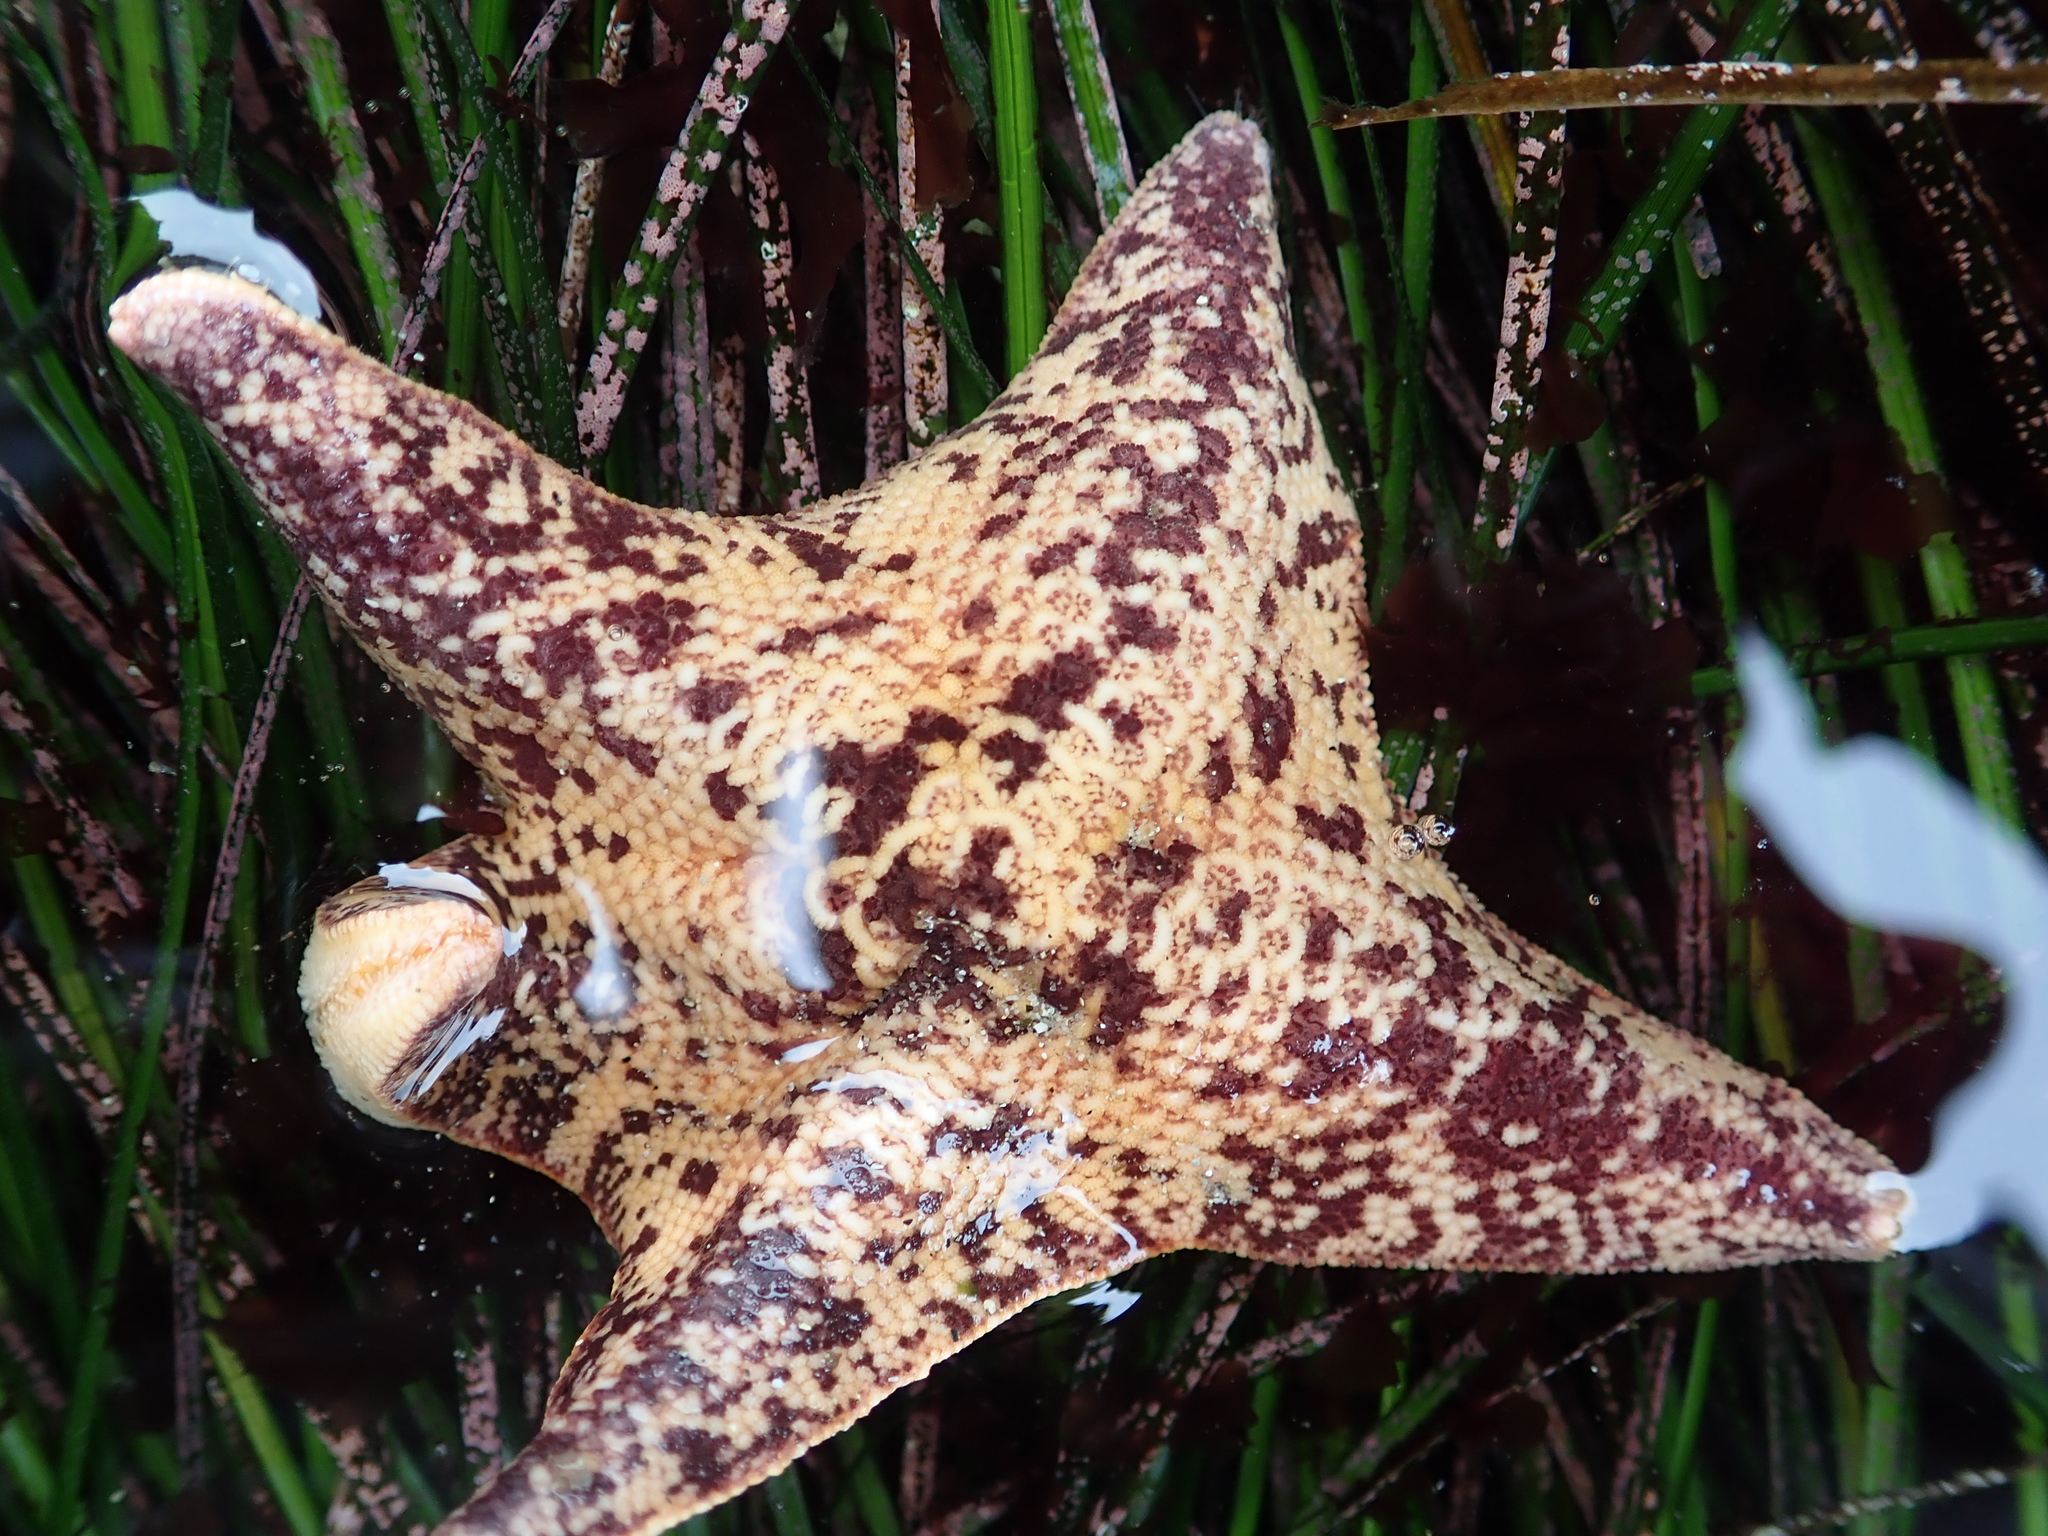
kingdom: Animalia
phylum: Echinodermata
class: Asteroidea
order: Valvatida
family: Asterinidae
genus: Patiria
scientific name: Patiria miniata
